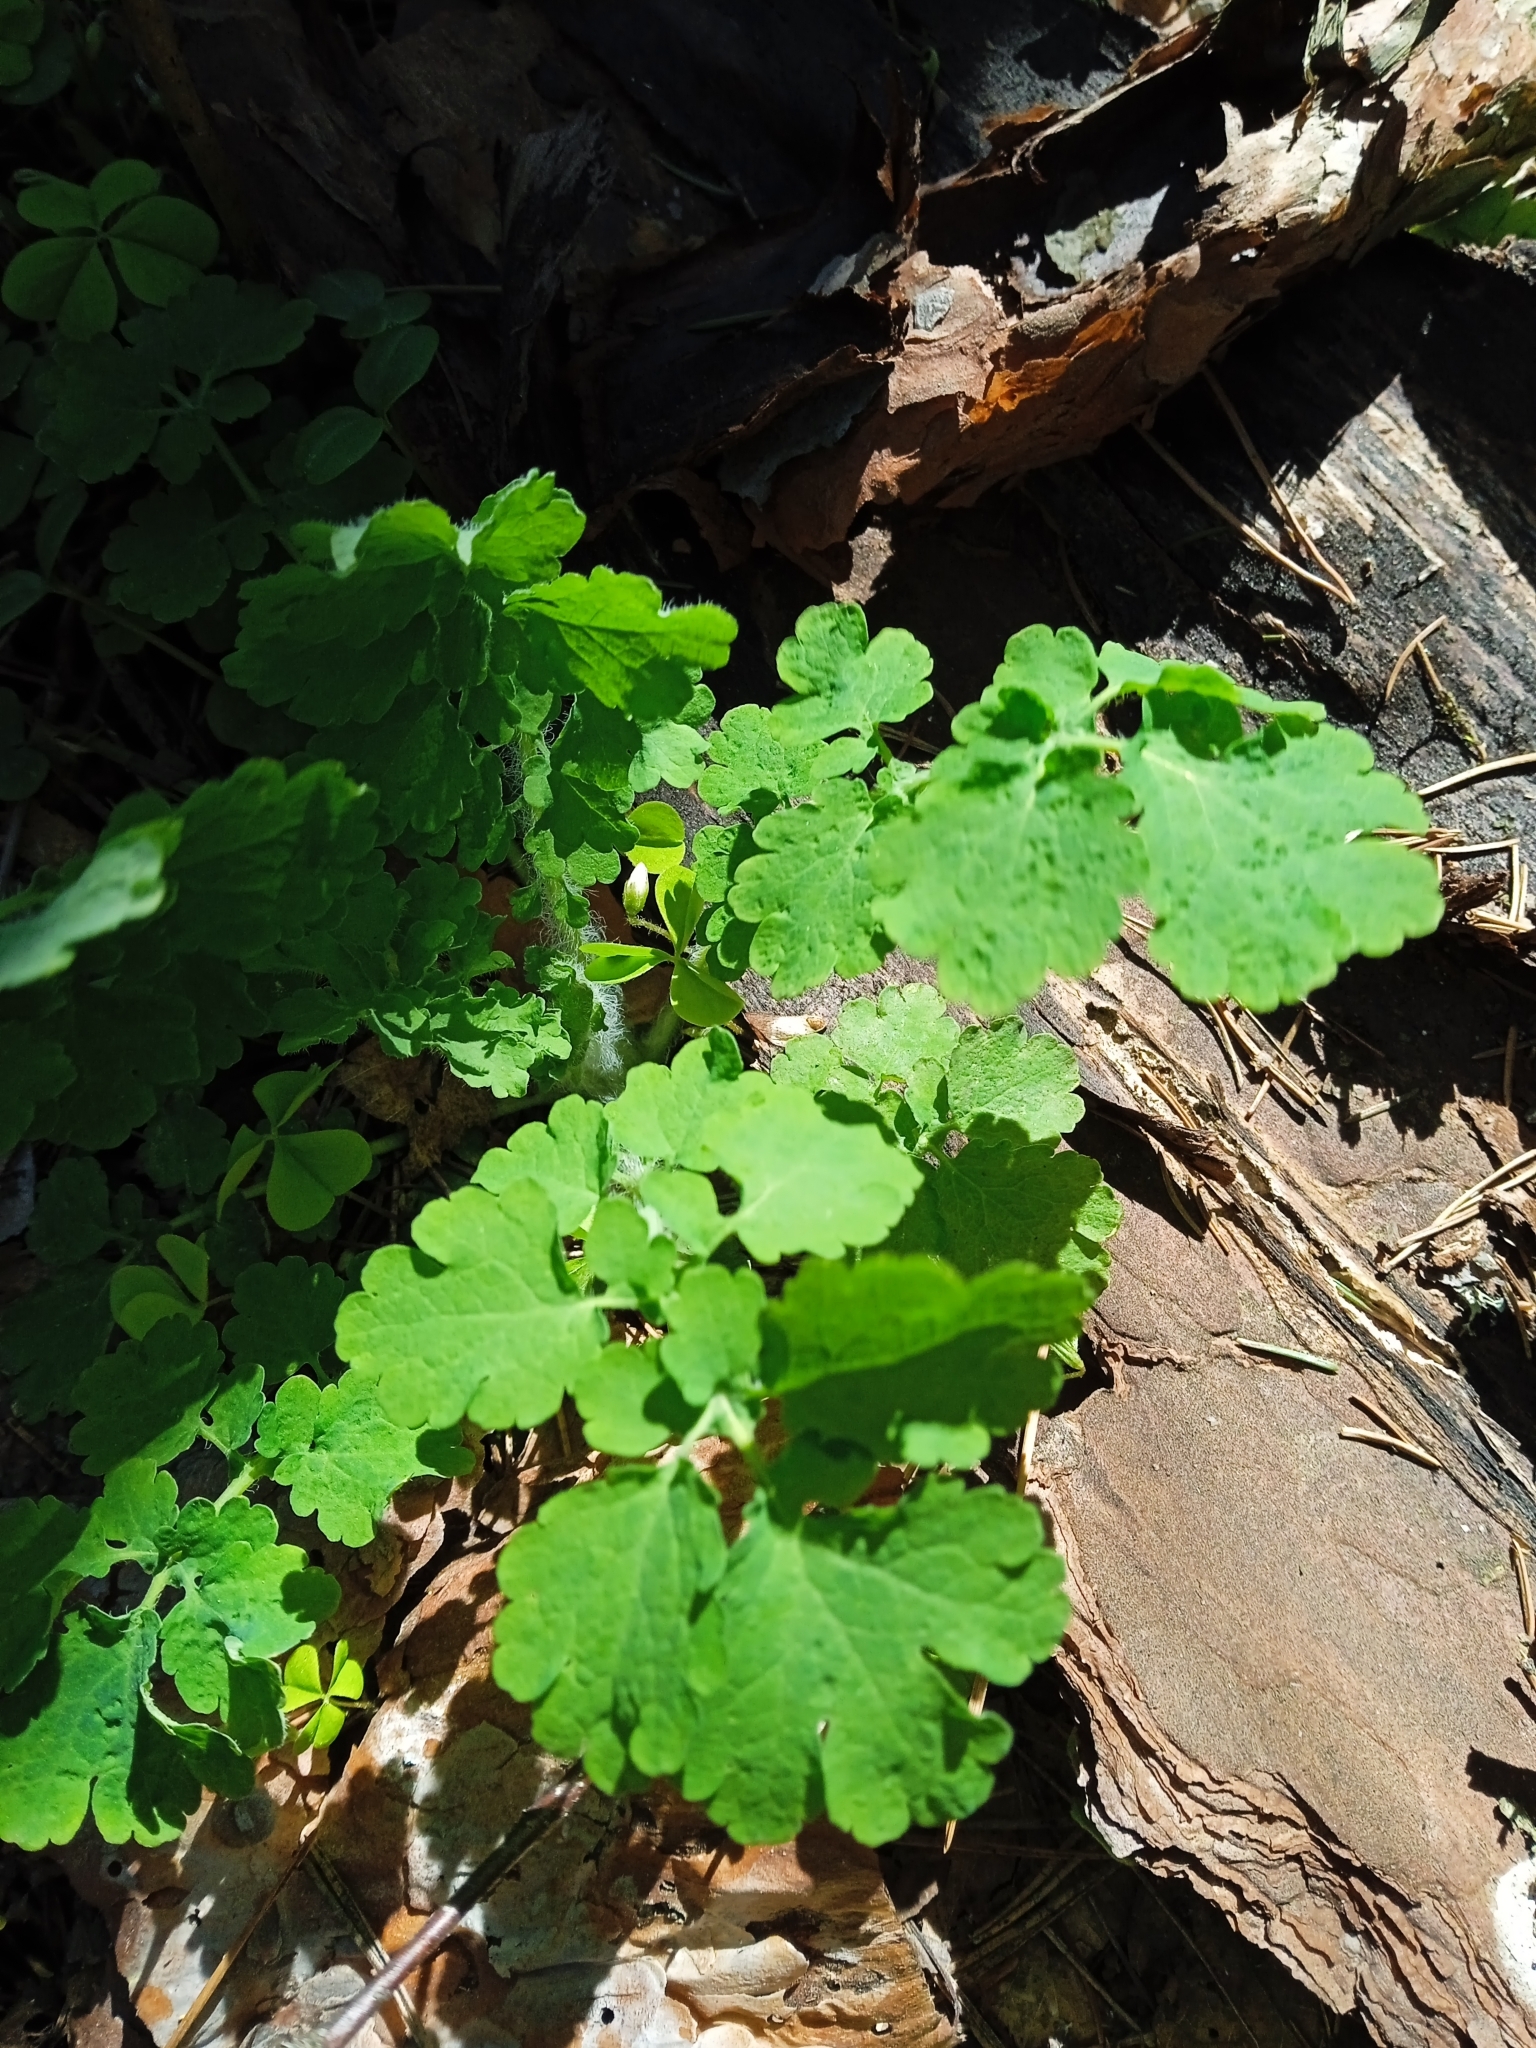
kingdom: Plantae
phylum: Tracheophyta
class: Magnoliopsida
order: Ranunculales
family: Papaveraceae
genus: Chelidonium
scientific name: Chelidonium majus
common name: Greater celandine
